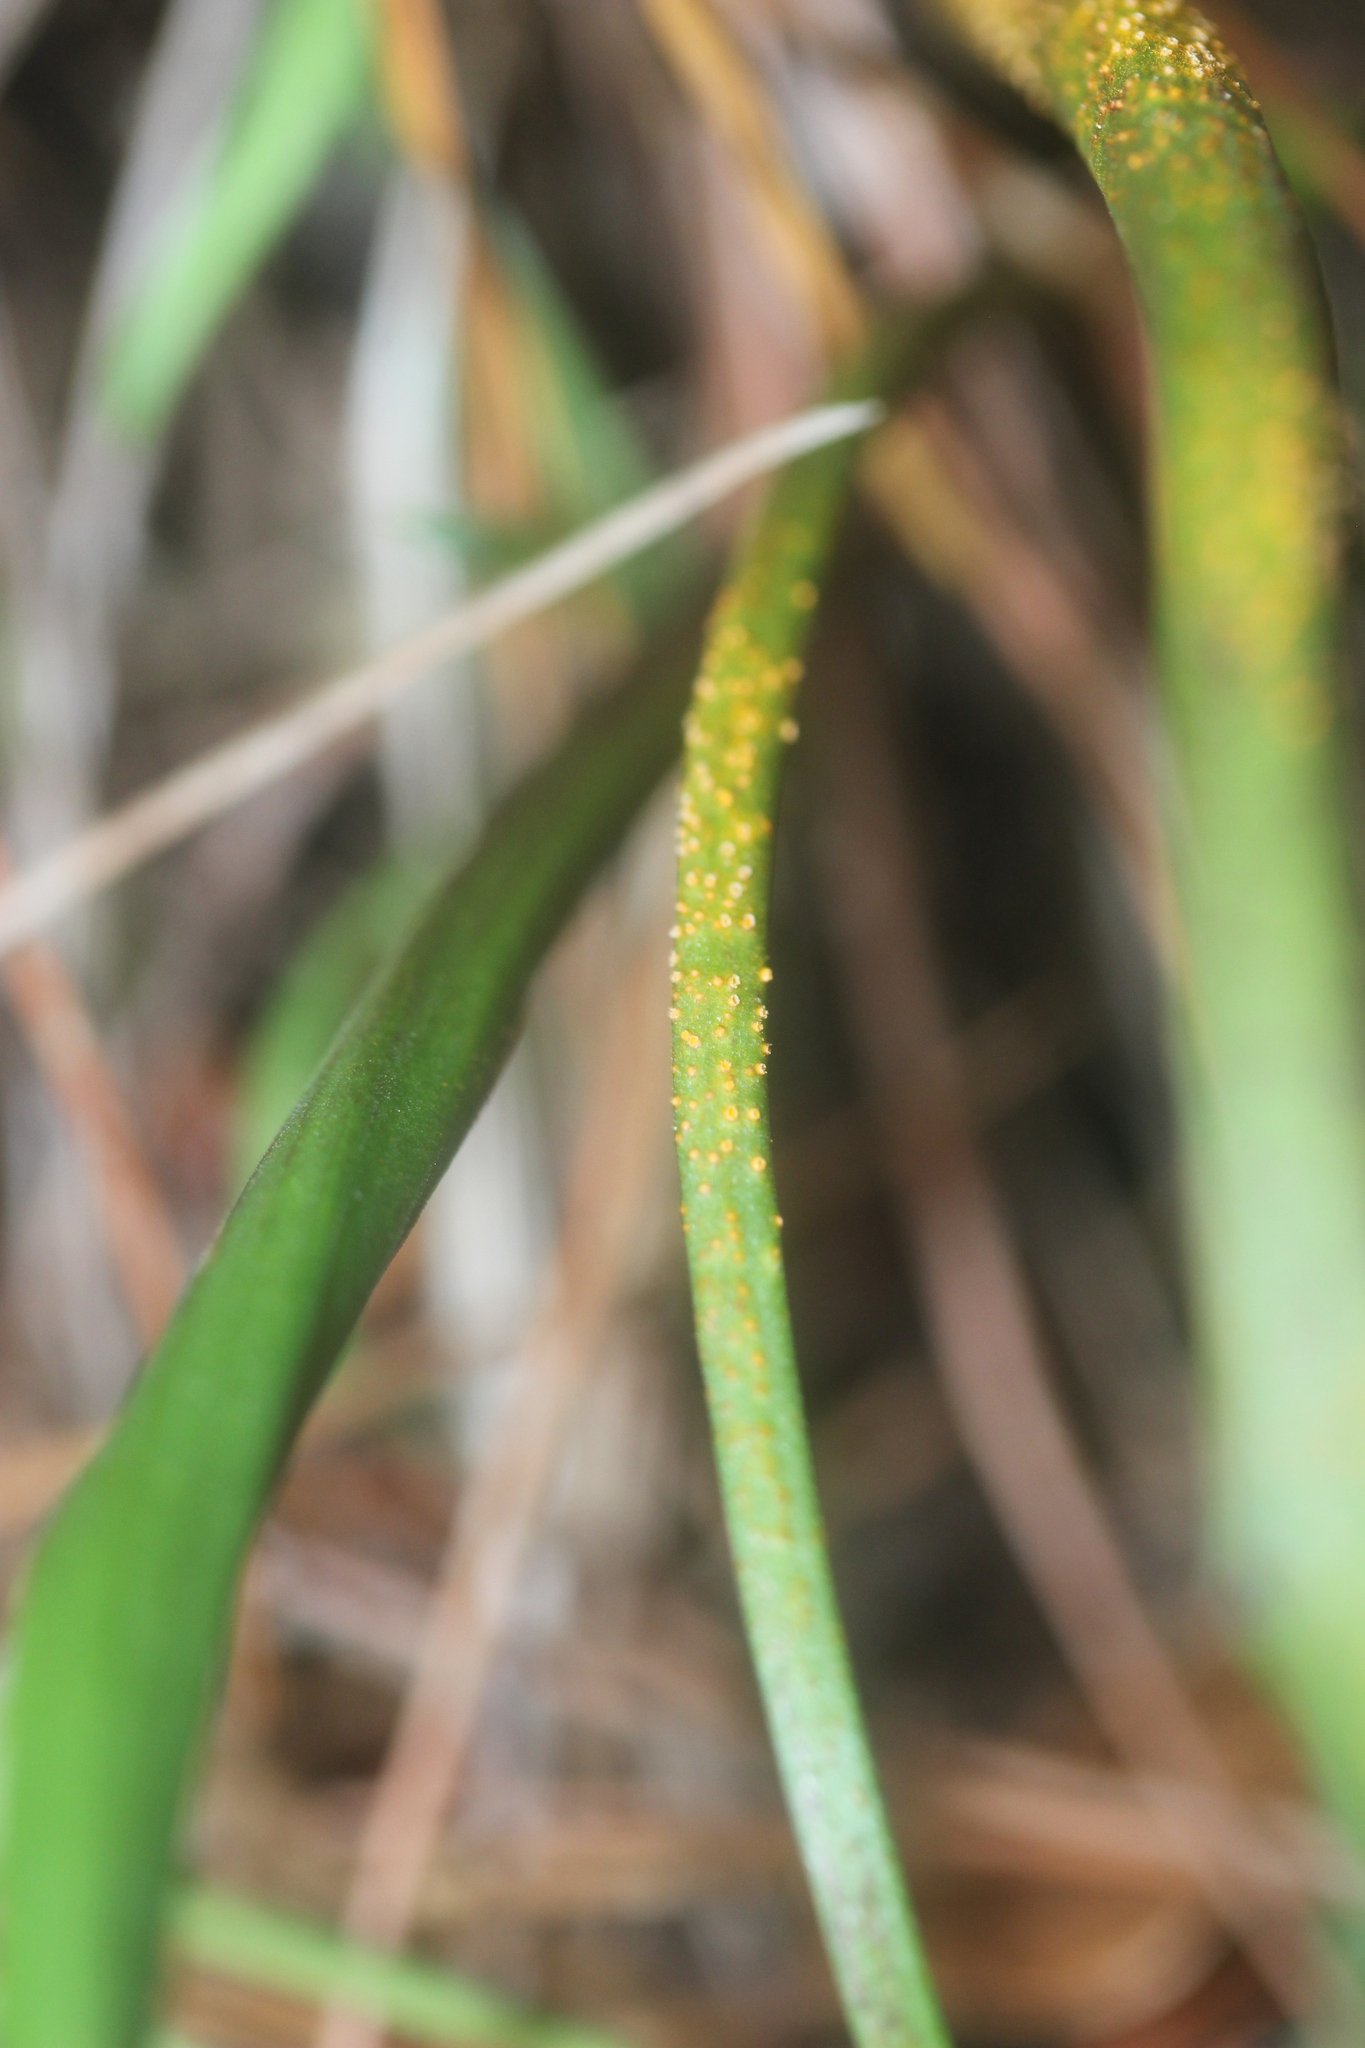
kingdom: Fungi
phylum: Basidiomycota
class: Pucciniomycetes
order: Pucciniales
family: Pucciniaceae
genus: Uromyces
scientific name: Uromyces thelymitrae
